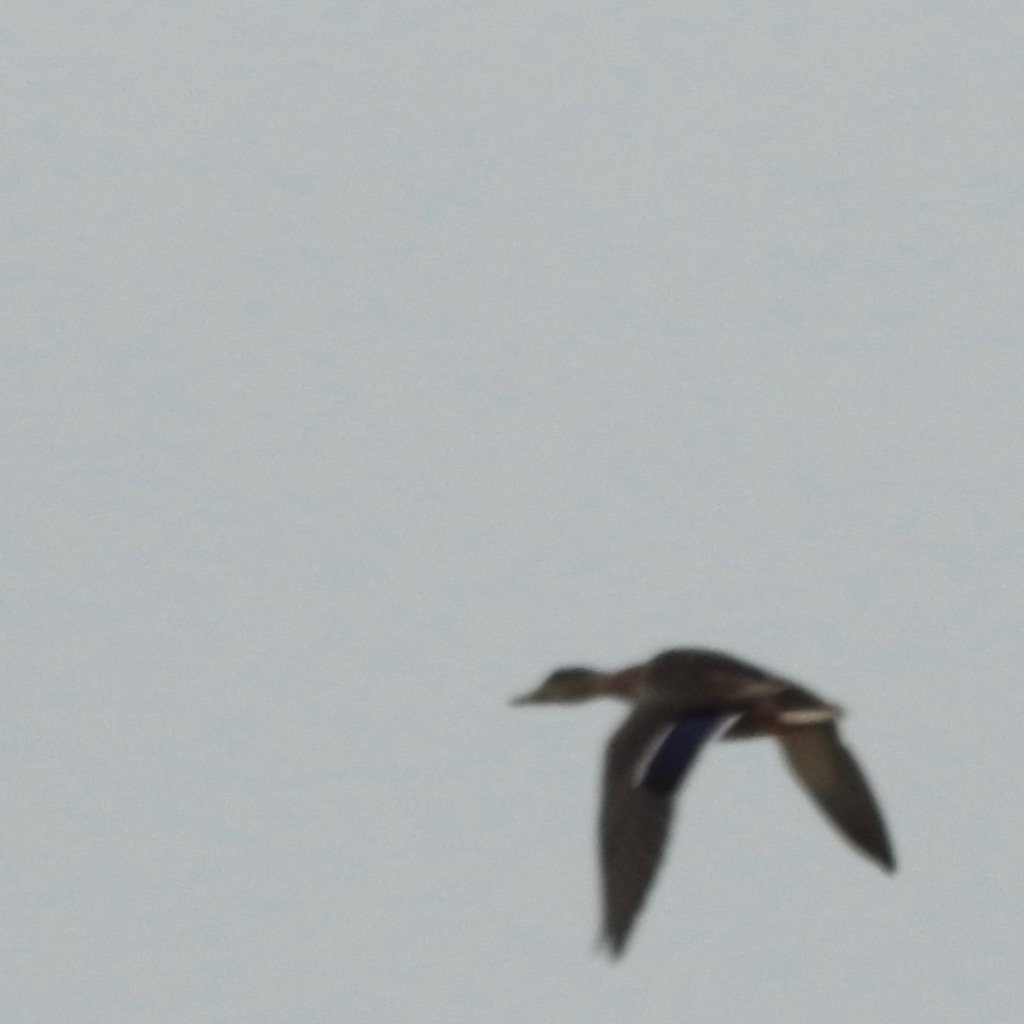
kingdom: Animalia
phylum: Chordata
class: Aves
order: Anseriformes
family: Anatidae
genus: Anas
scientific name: Anas platyrhynchos
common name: Mallard
